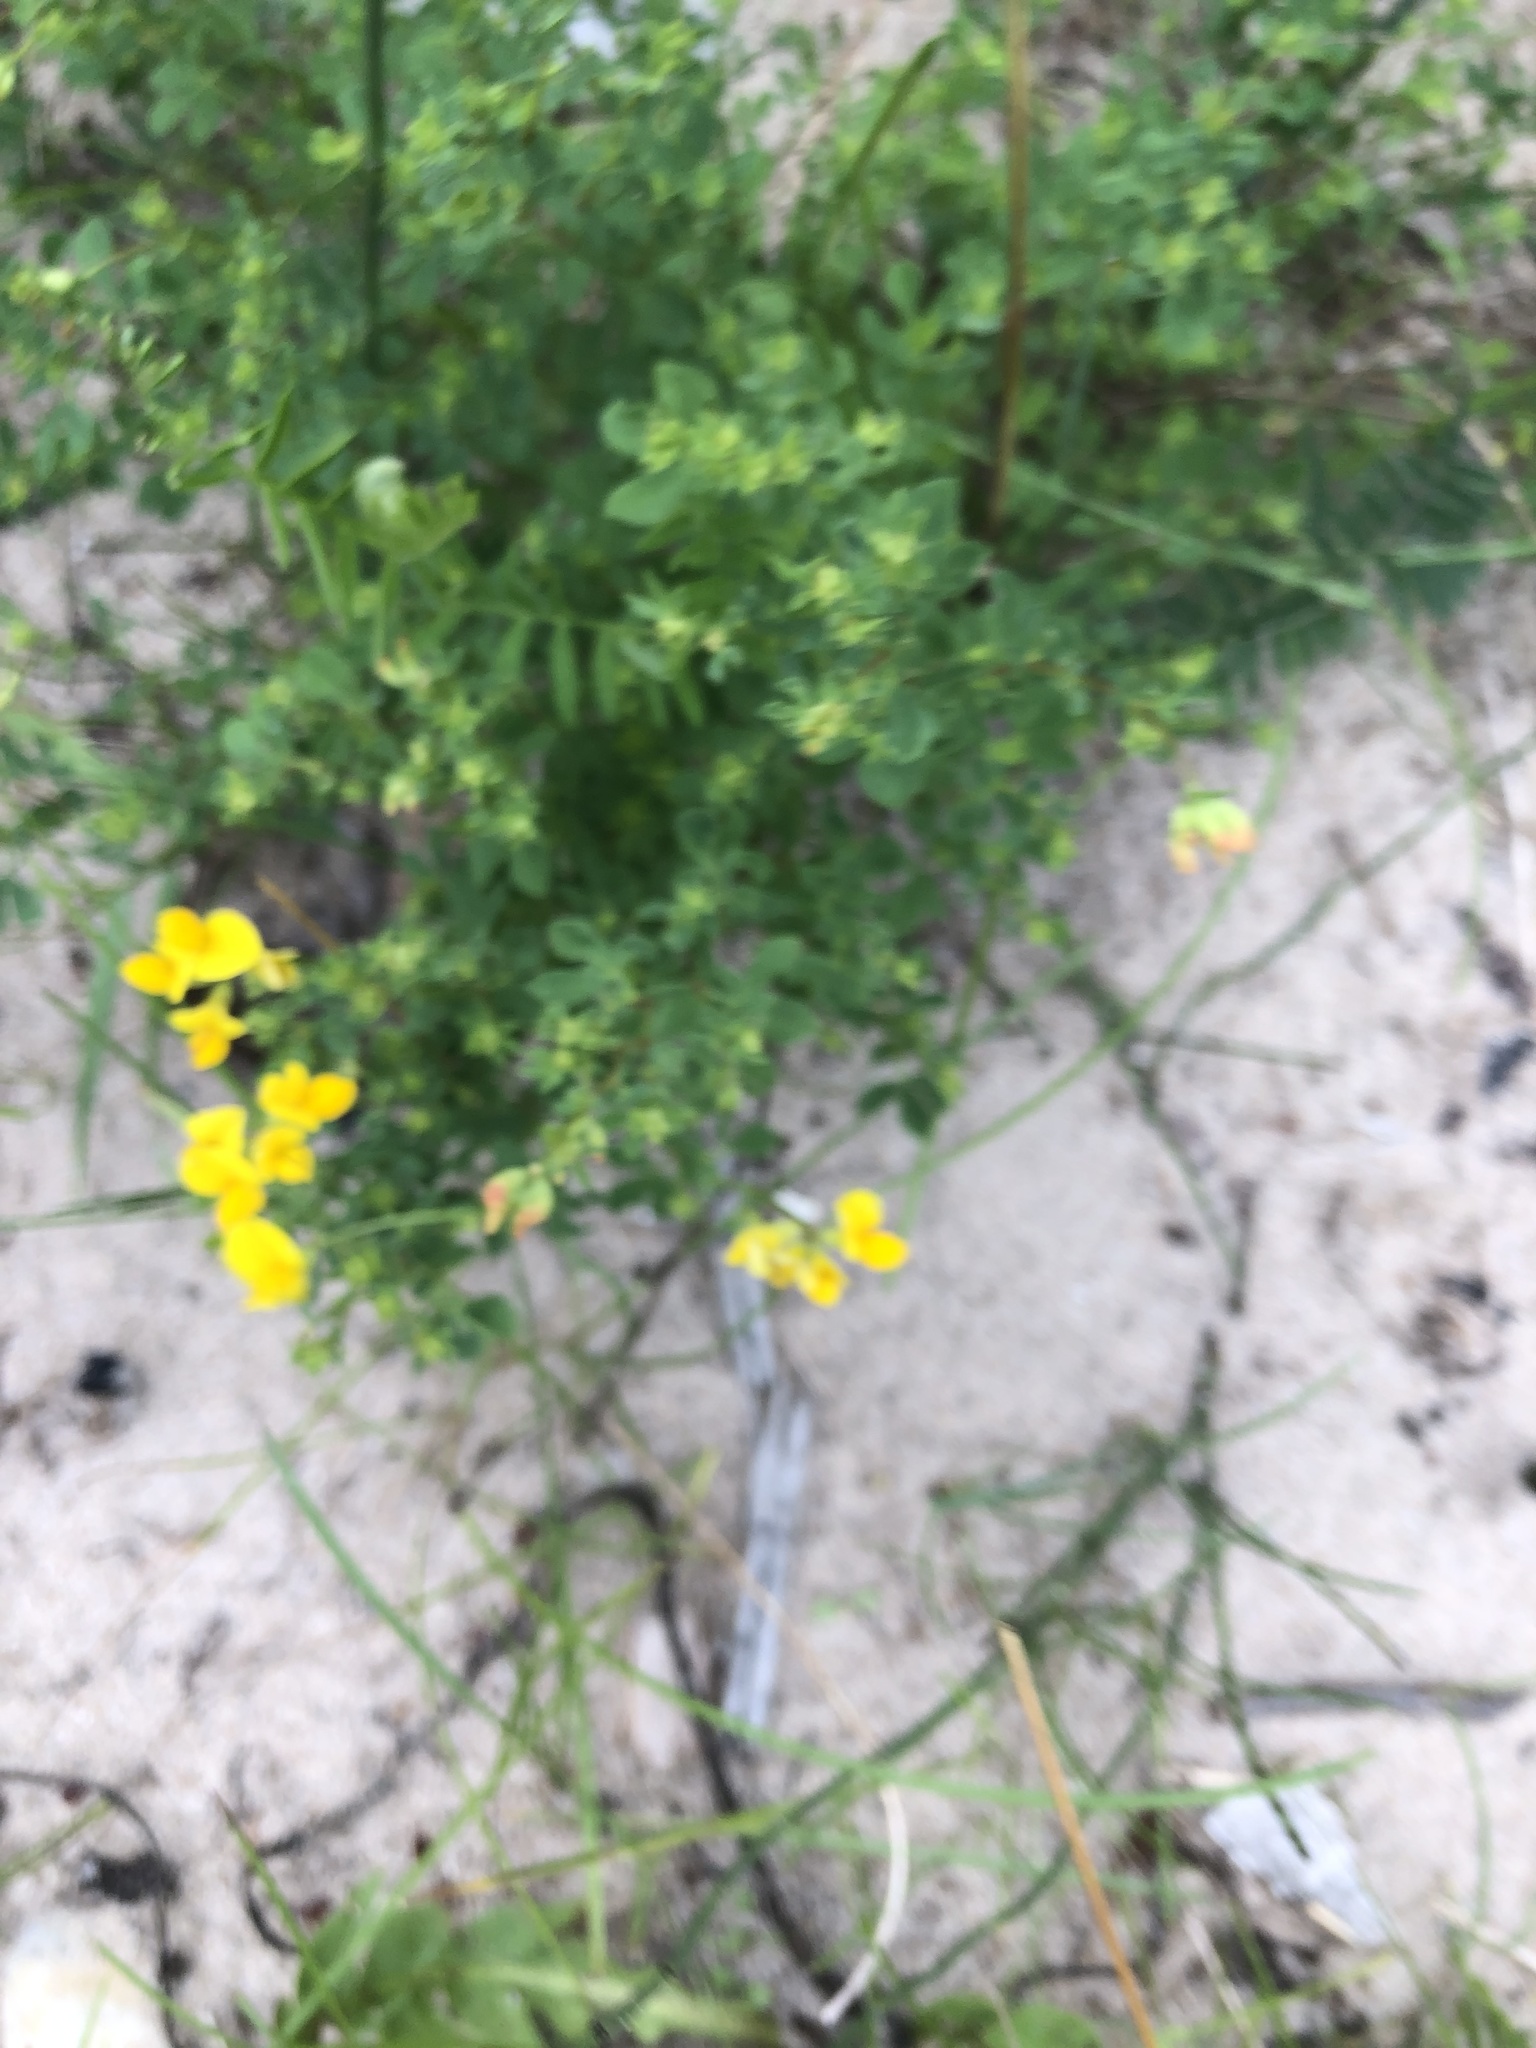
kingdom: Plantae
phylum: Tracheophyta
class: Magnoliopsida
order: Fabales
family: Fabaceae
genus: Lotus
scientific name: Lotus corniculatus
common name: Common bird's-foot-trefoil
